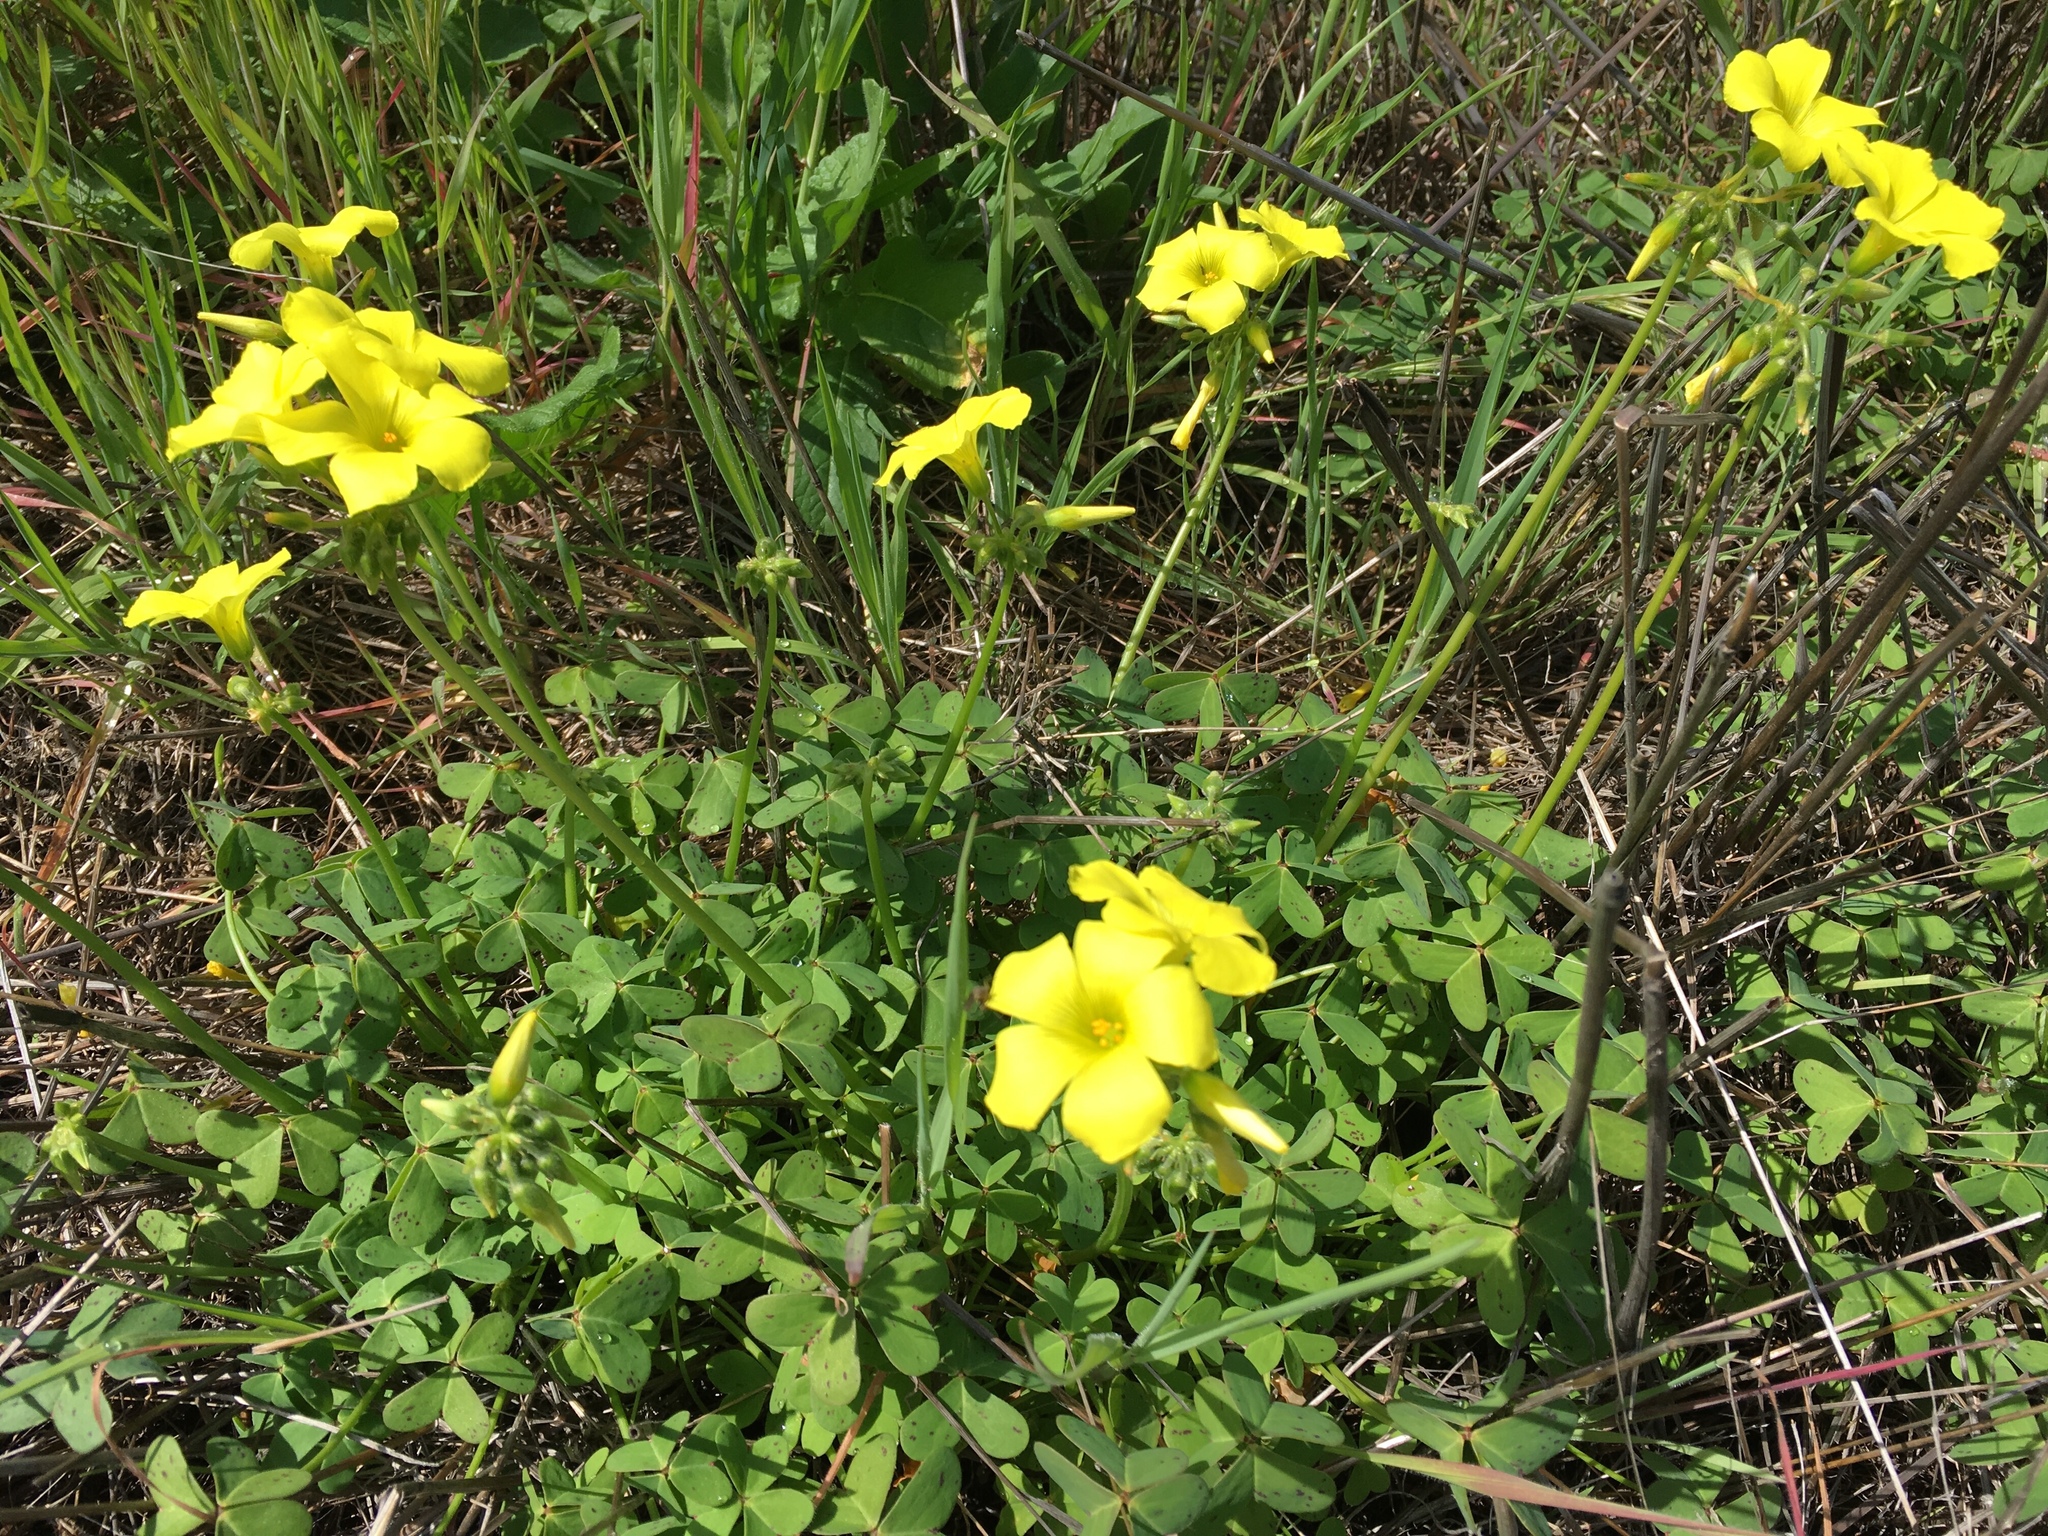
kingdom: Plantae
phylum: Tracheophyta
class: Magnoliopsida
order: Oxalidales
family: Oxalidaceae
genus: Oxalis
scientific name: Oxalis pes-caprae
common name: Bermuda-buttercup
